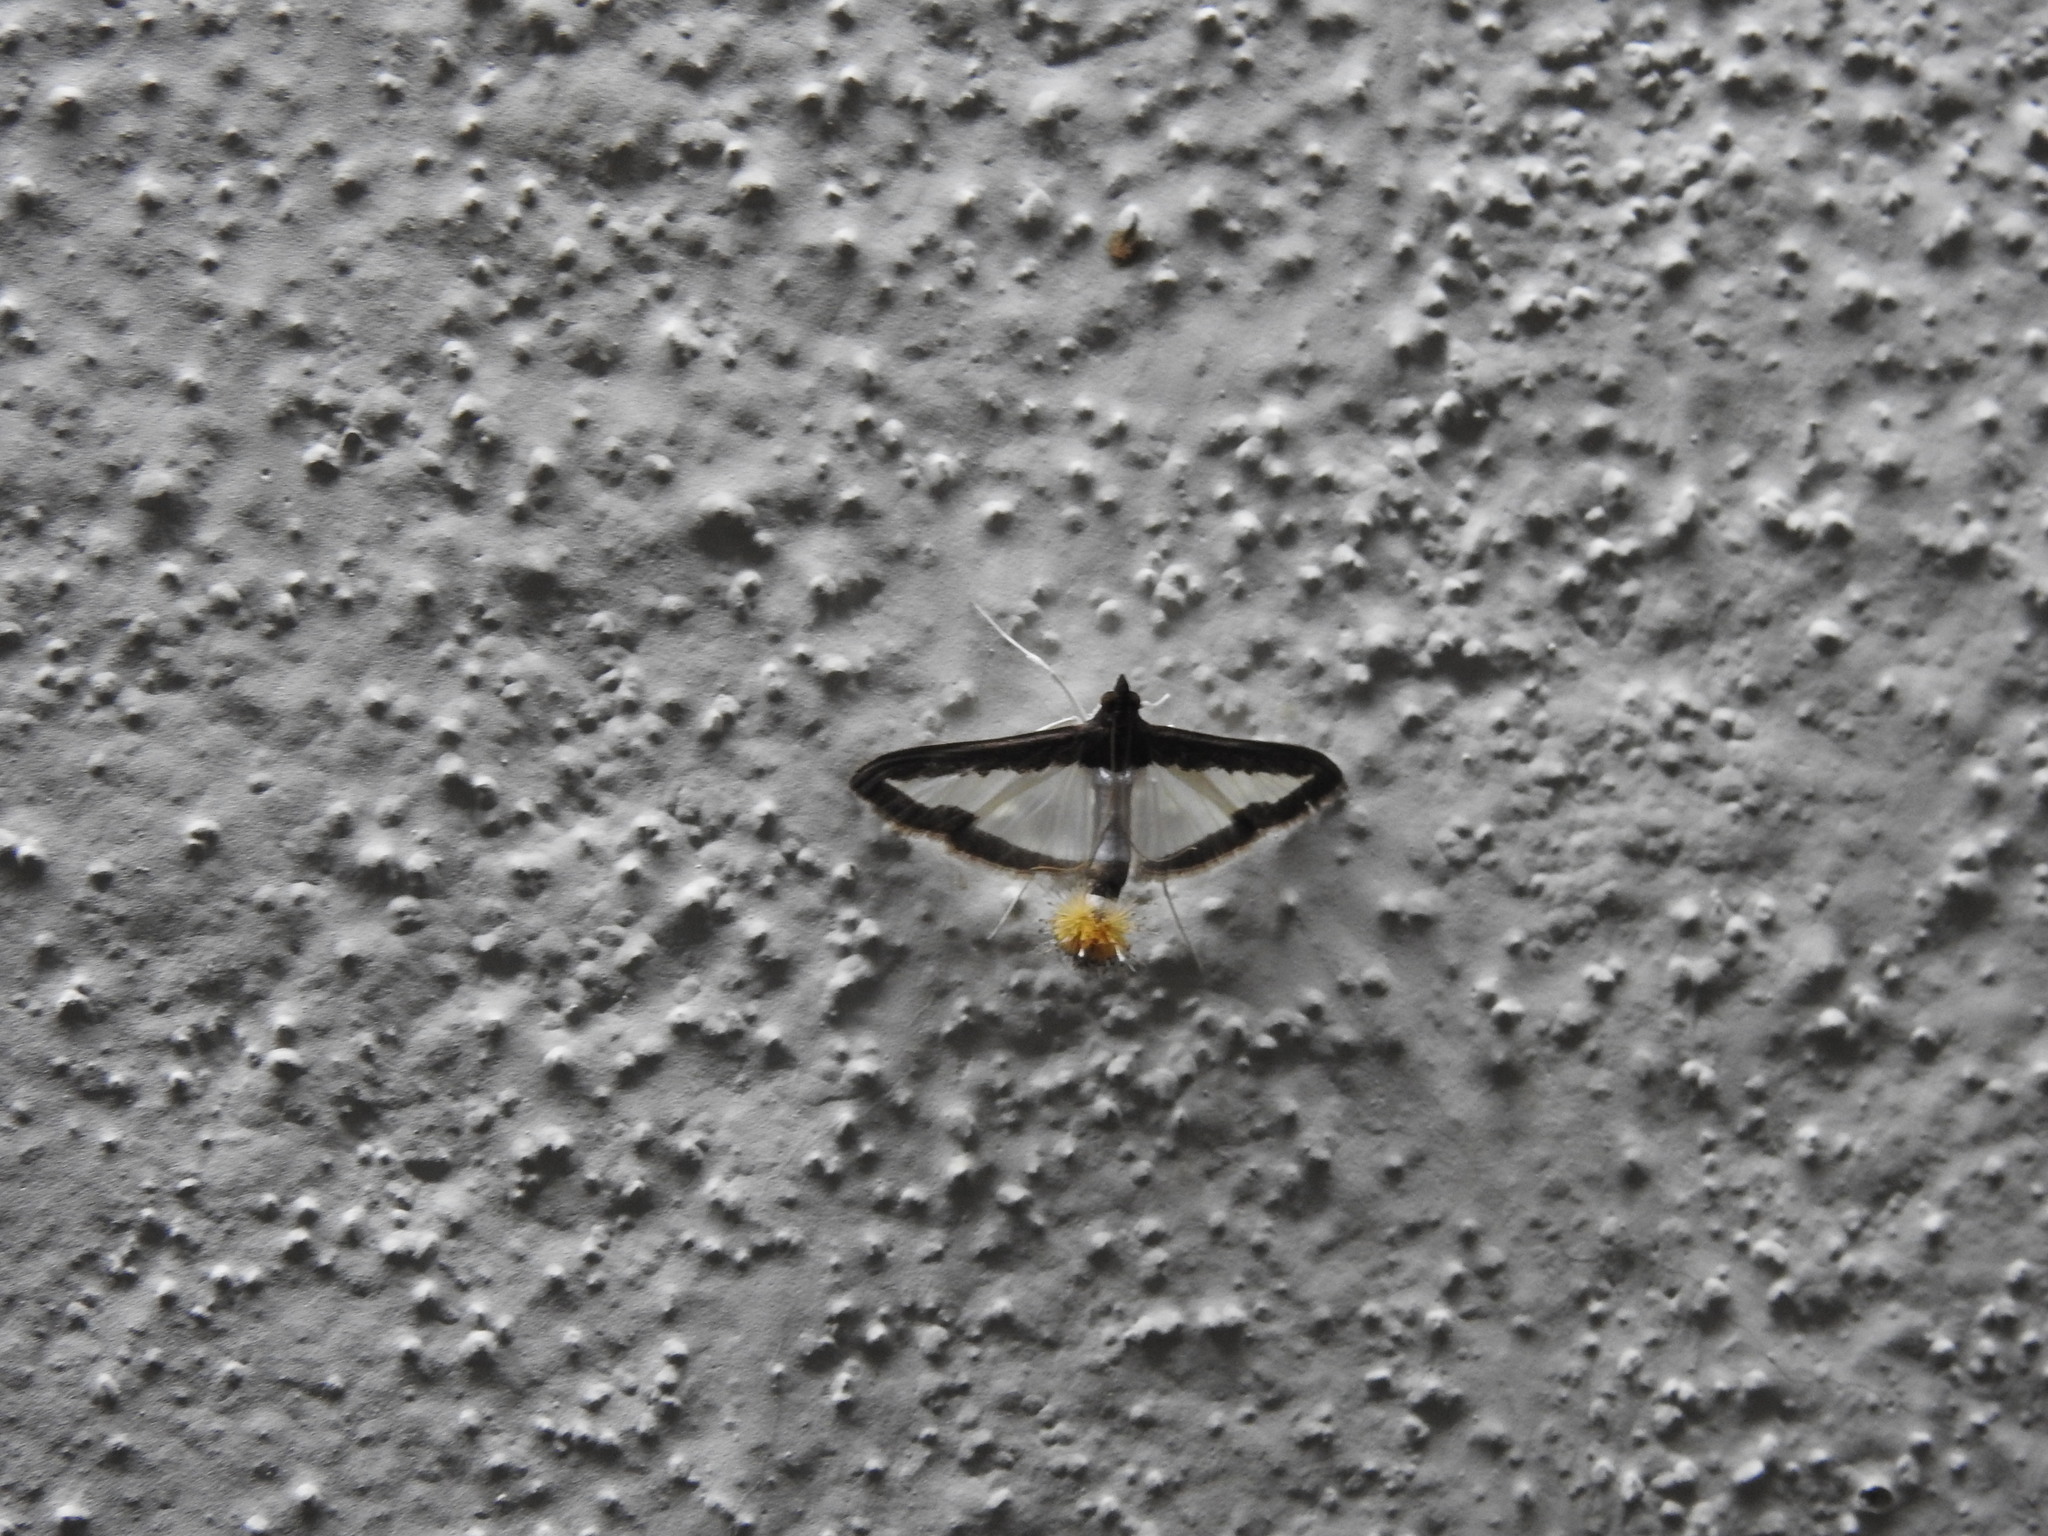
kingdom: Animalia
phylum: Arthropoda
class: Insecta
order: Lepidoptera
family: Crambidae
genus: Diaphania
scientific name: Diaphania indica
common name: Cucumber moth
